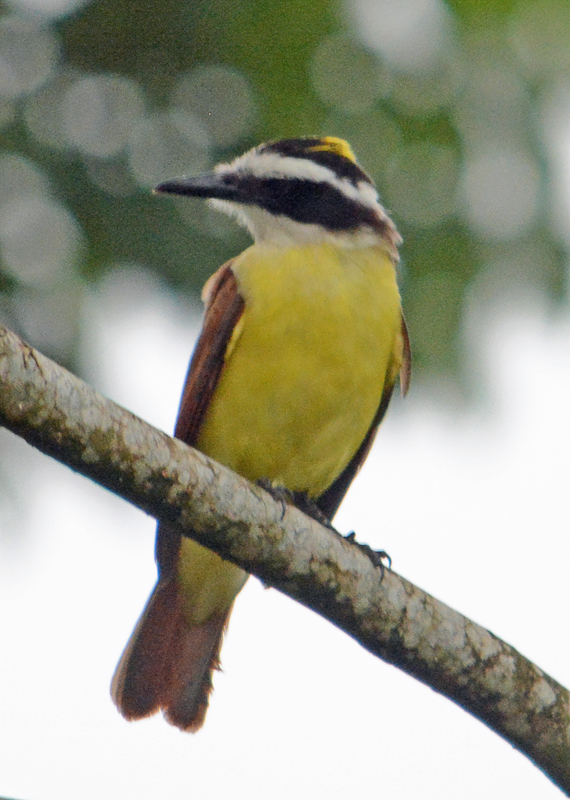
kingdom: Animalia
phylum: Chordata
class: Aves
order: Passeriformes
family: Tyrannidae
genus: Pitangus
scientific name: Pitangus sulphuratus
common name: Great kiskadee
